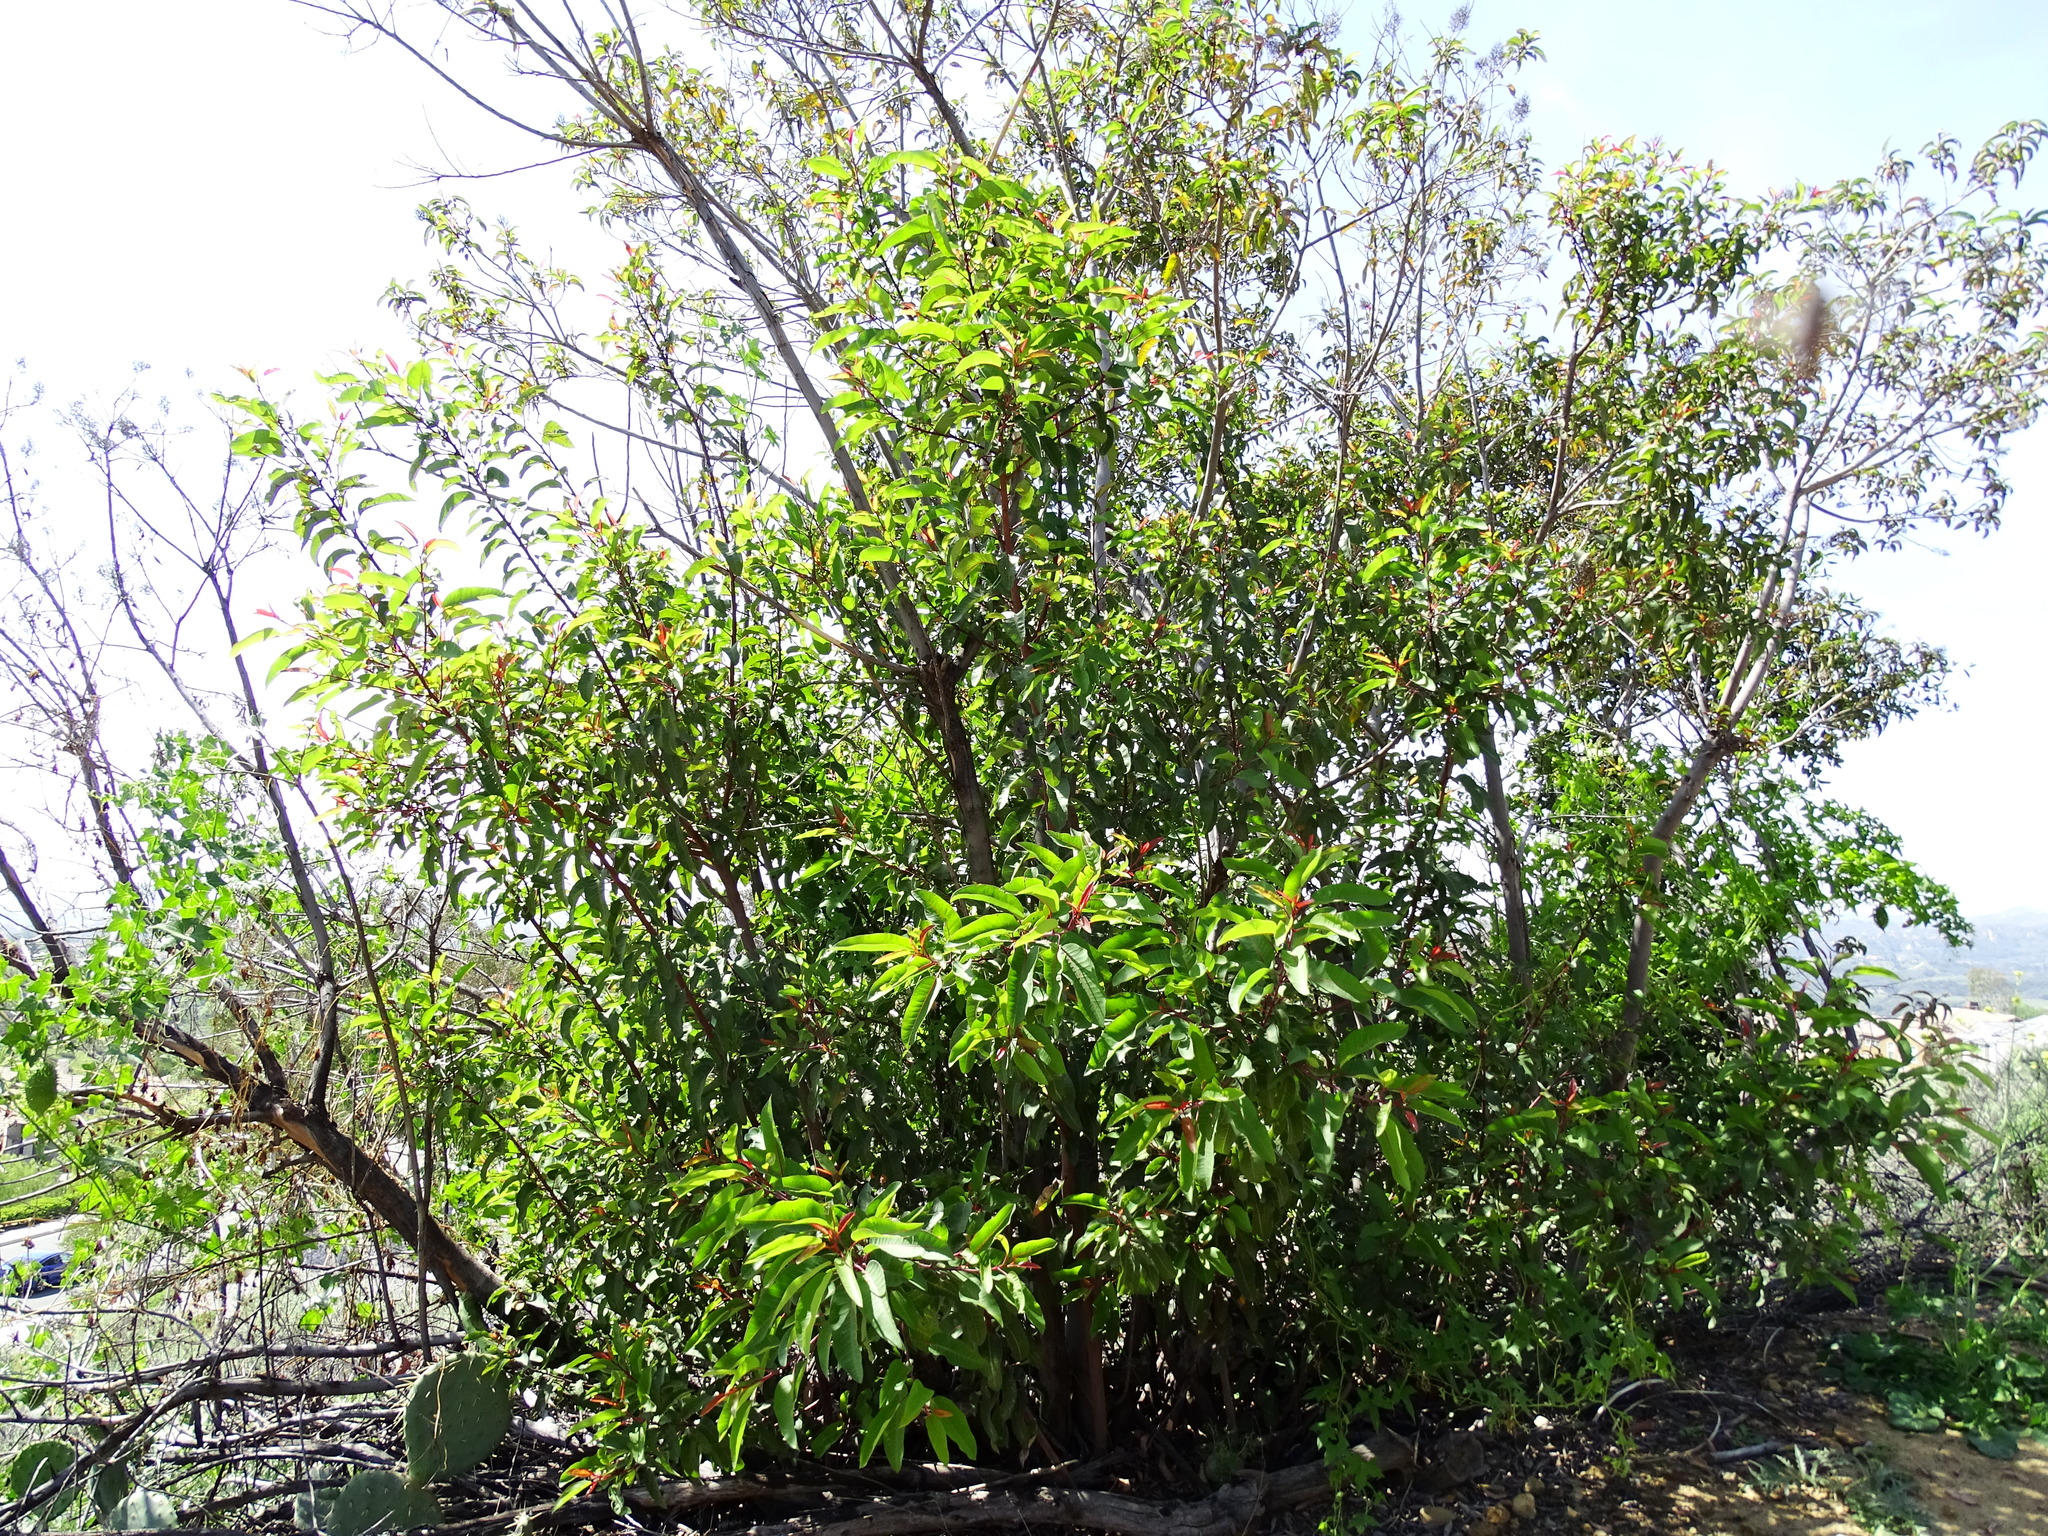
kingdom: Plantae
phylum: Tracheophyta
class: Magnoliopsida
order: Sapindales
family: Anacardiaceae
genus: Malosma
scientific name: Malosma laurina
